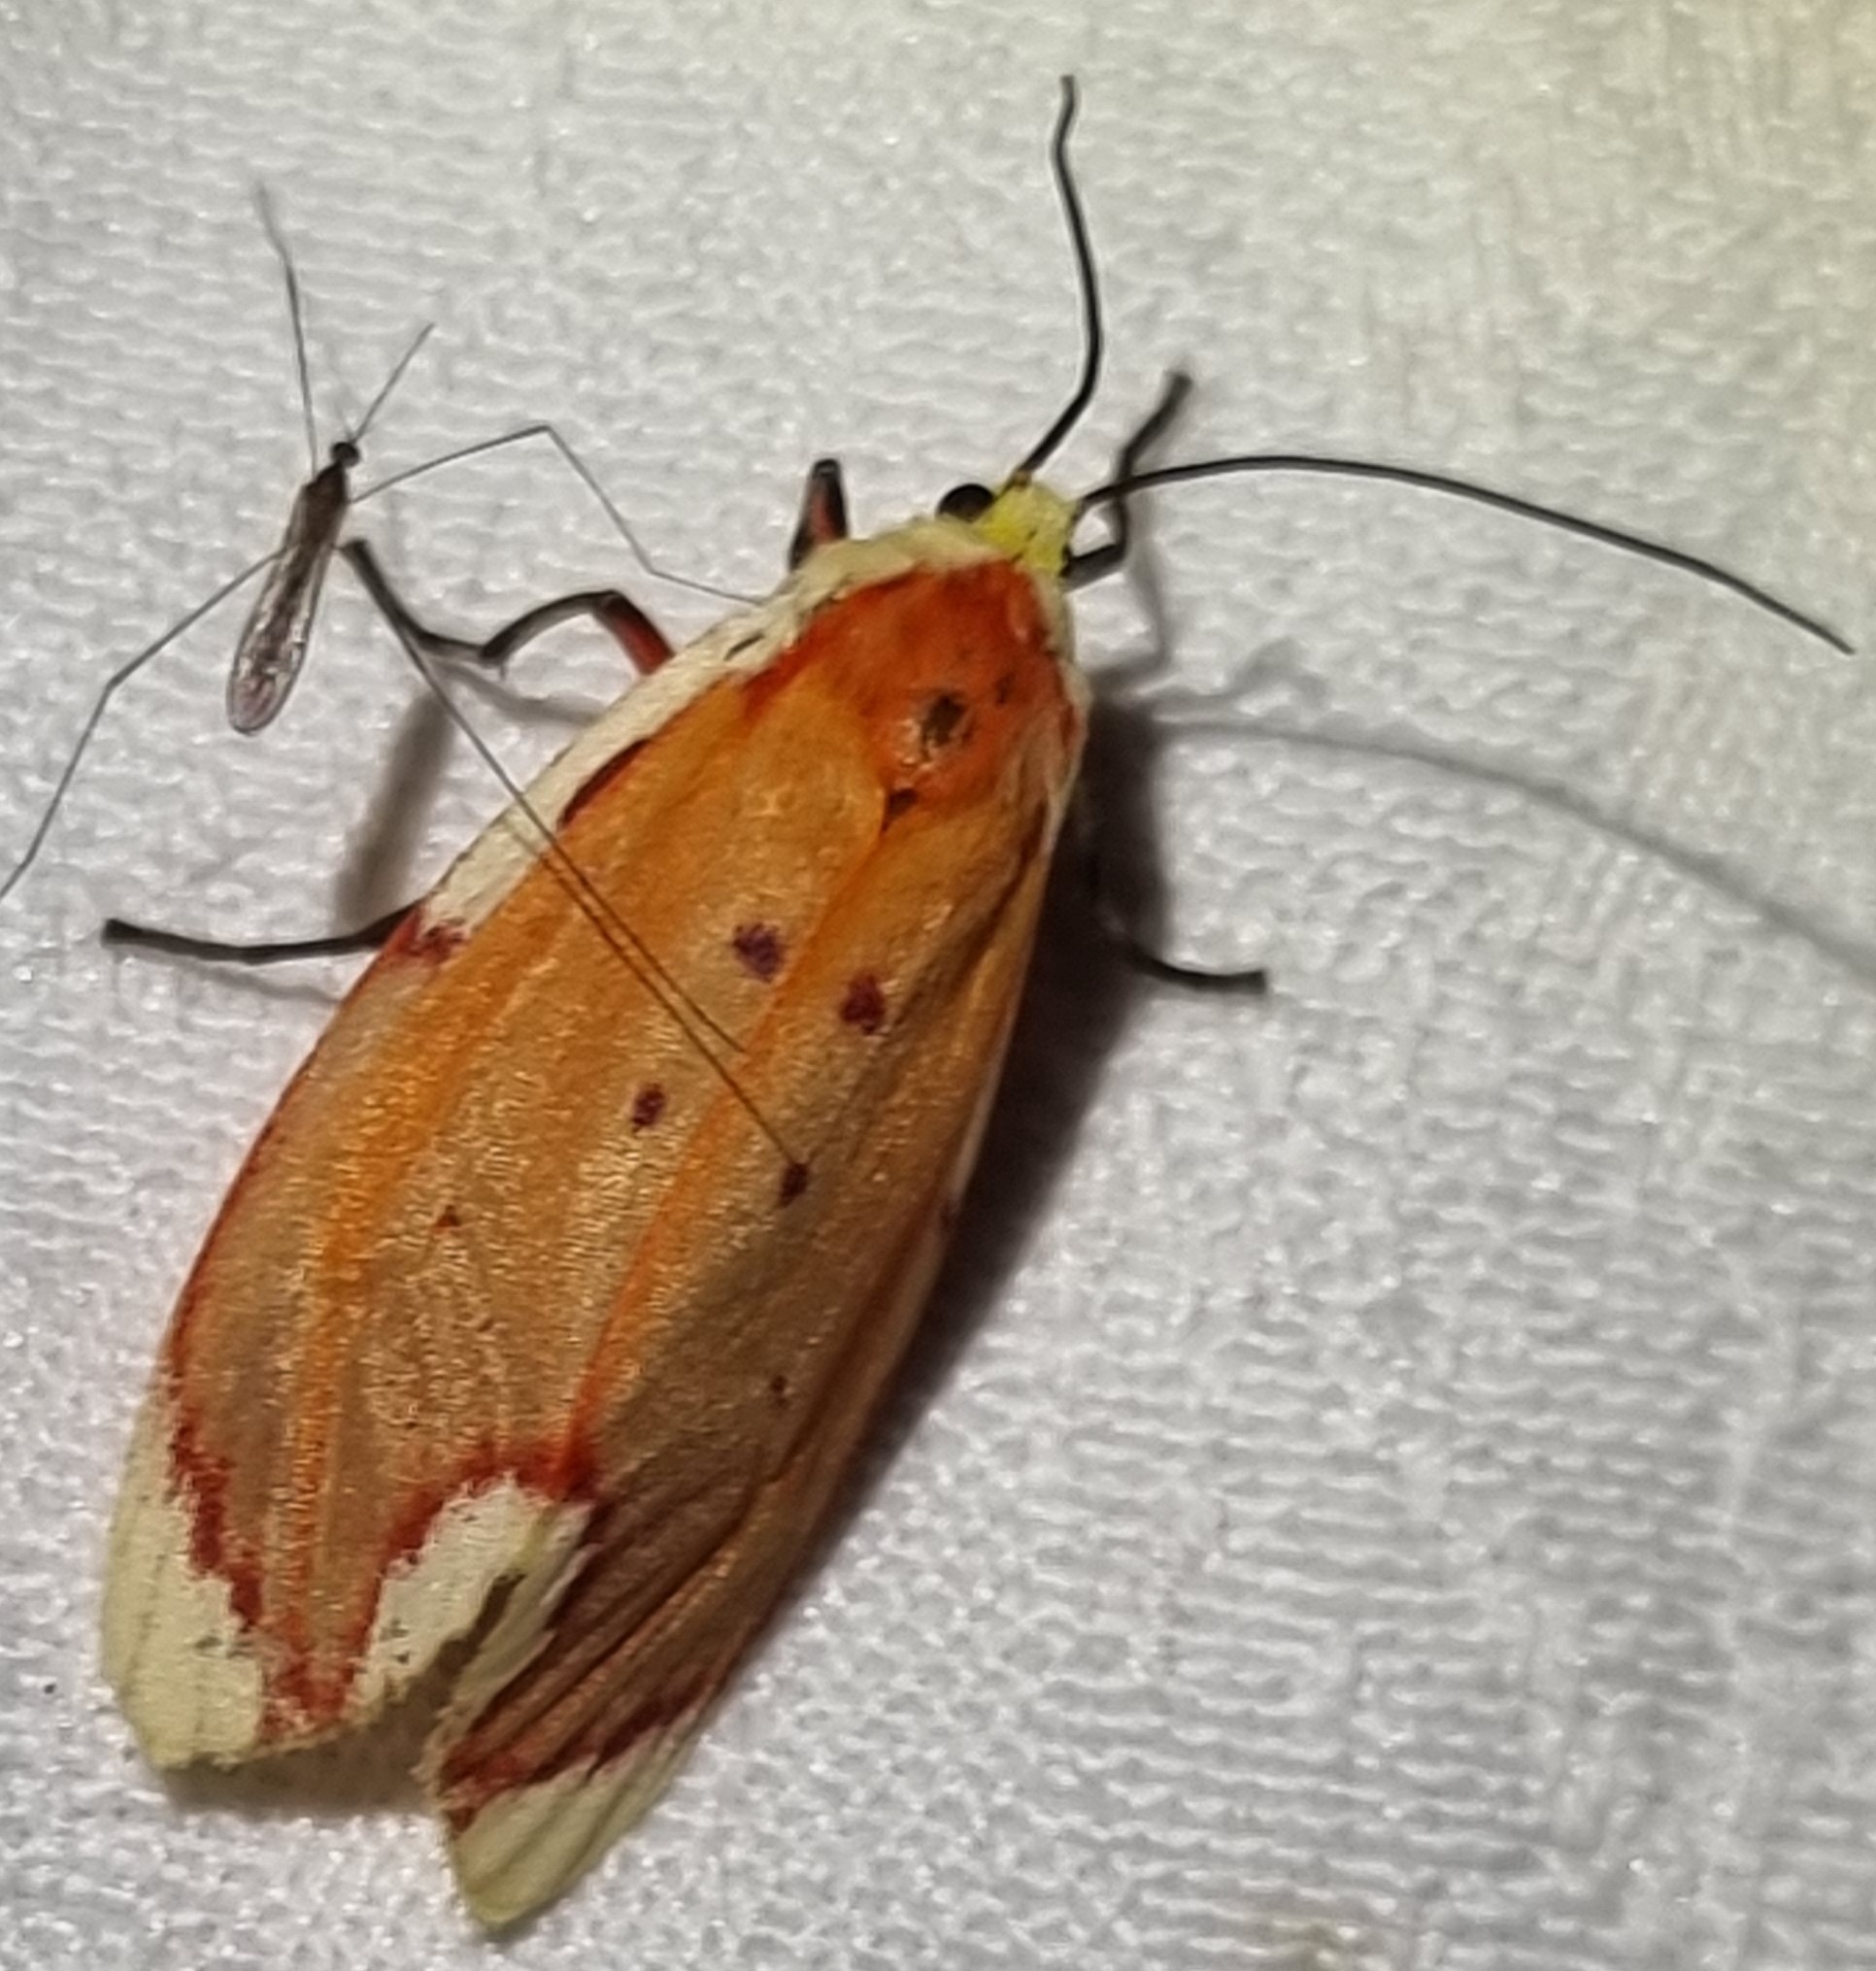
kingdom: Animalia
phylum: Arthropoda
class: Insecta
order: Lepidoptera
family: Lacturidae
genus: Lactura
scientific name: Lactura sapotearum
